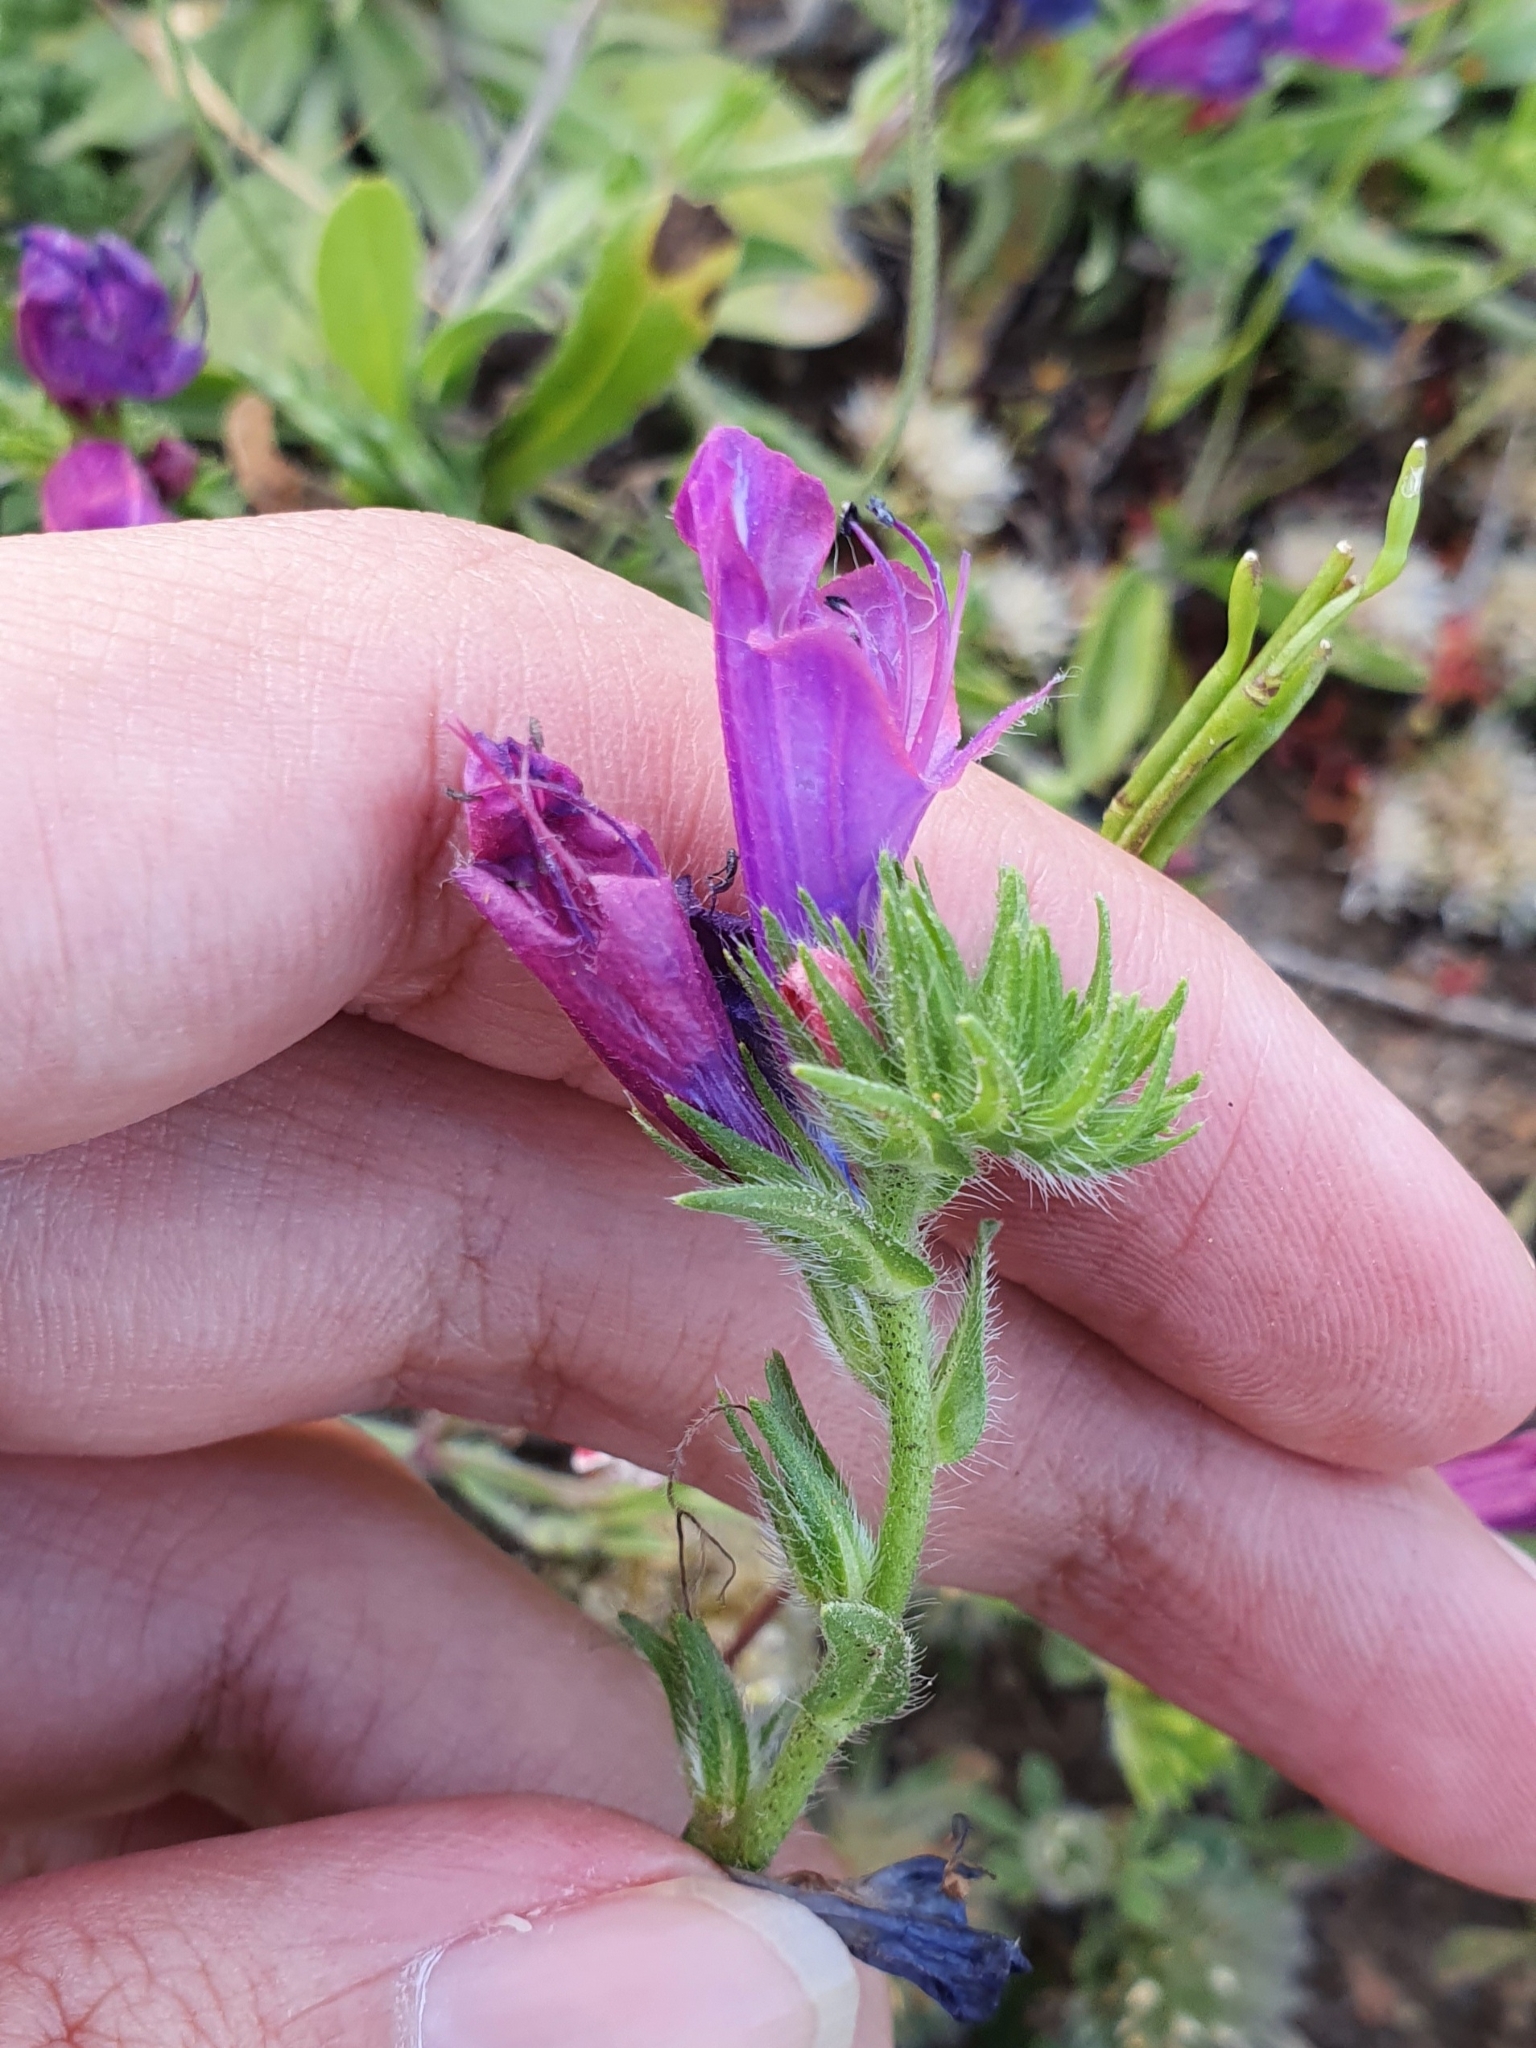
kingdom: Plantae
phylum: Tracheophyta
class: Magnoliopsida
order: Boraginales
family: Boraginaceae
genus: Echium
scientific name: Echium plantagineum
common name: Purple viper's-bugloss
